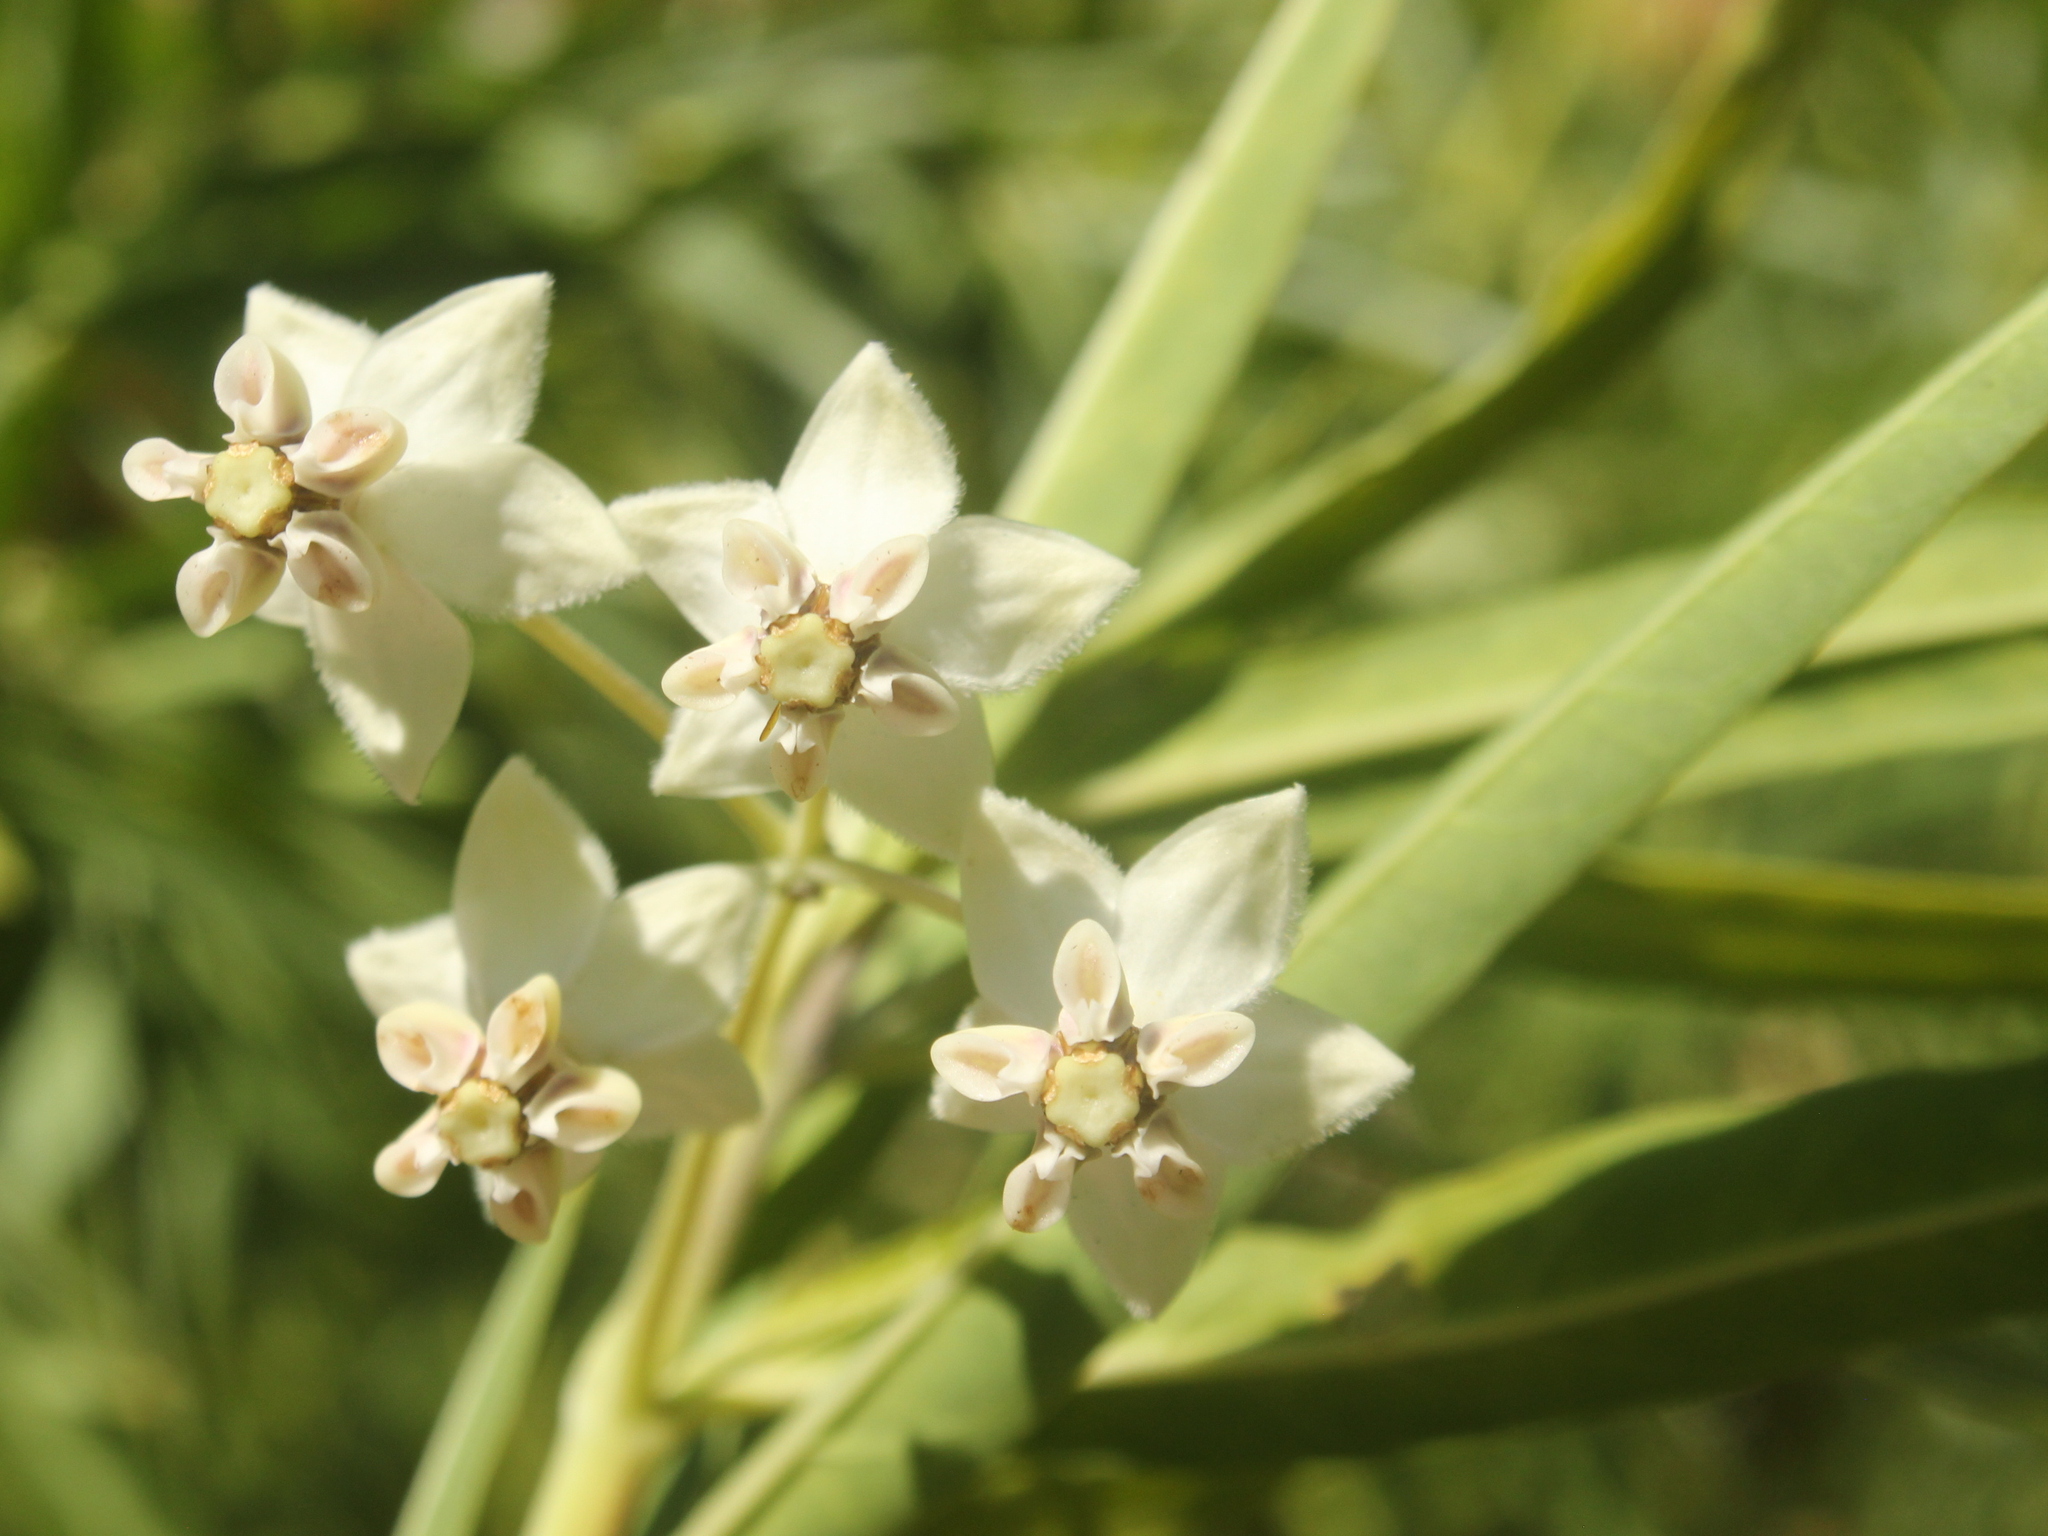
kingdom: Plantae
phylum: Tracheophyta
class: Magnoliopsida
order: Gentianales
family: Apocynaceae
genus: Gomphocarpus
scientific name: Gomphocarpus physocarpus
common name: Balloon cotton bush
